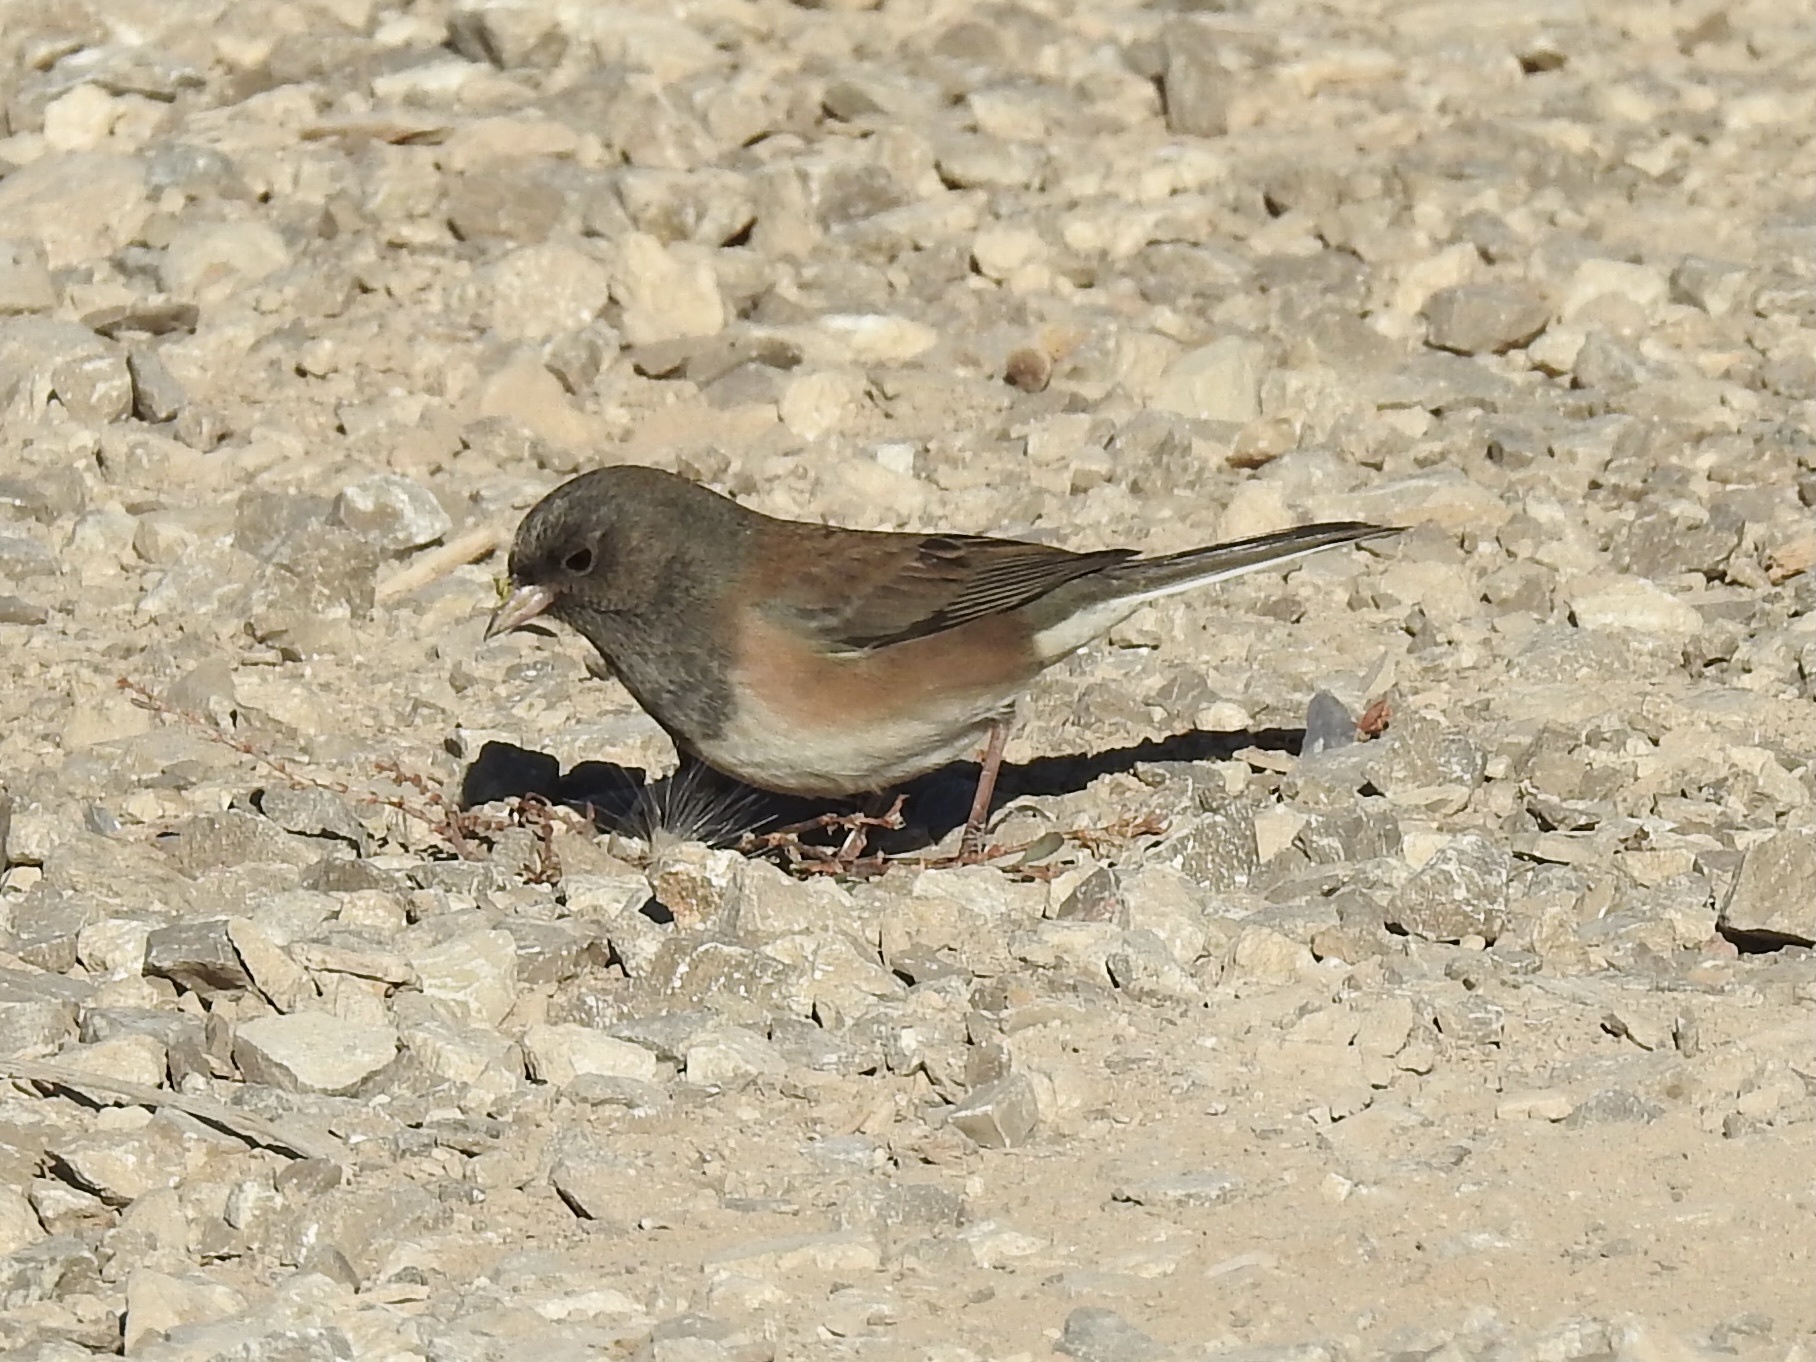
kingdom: Animalia
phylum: Chordata
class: Aves
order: Passeriformes
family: Passerellidae
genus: Junco
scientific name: Junco hyemalis
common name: Dark-eyed junco
